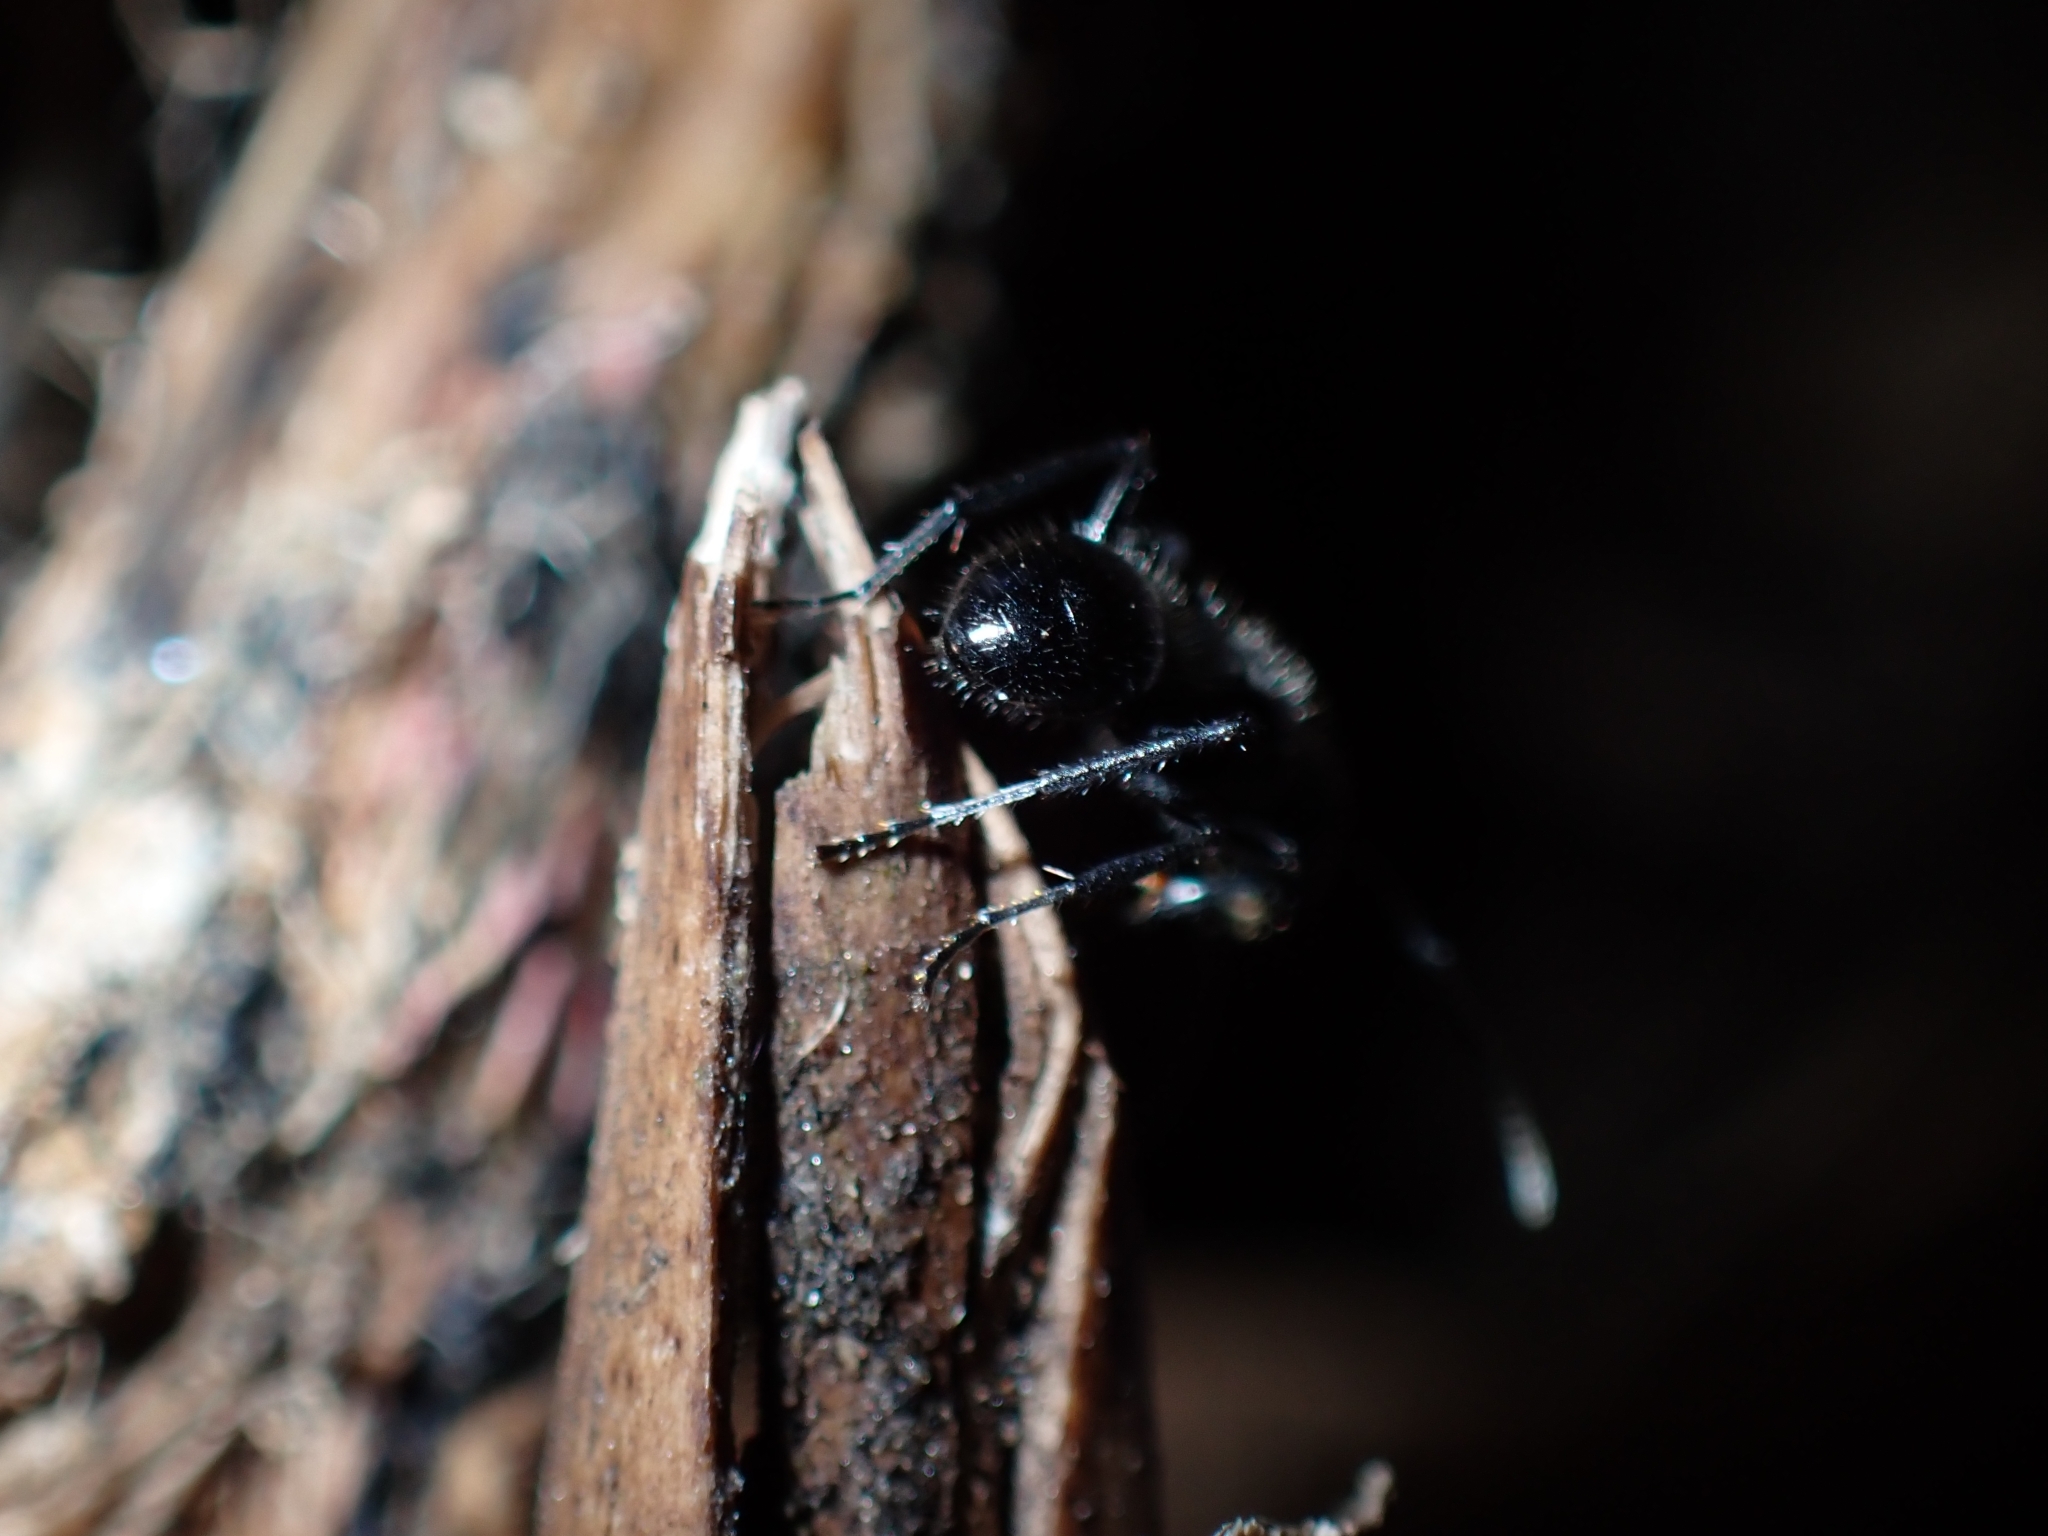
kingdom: Animalia
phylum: Arthropoda
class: Insecta
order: Hymenoptera
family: Formicidae
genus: Polyrhachis
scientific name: Polyrhachis aurea
